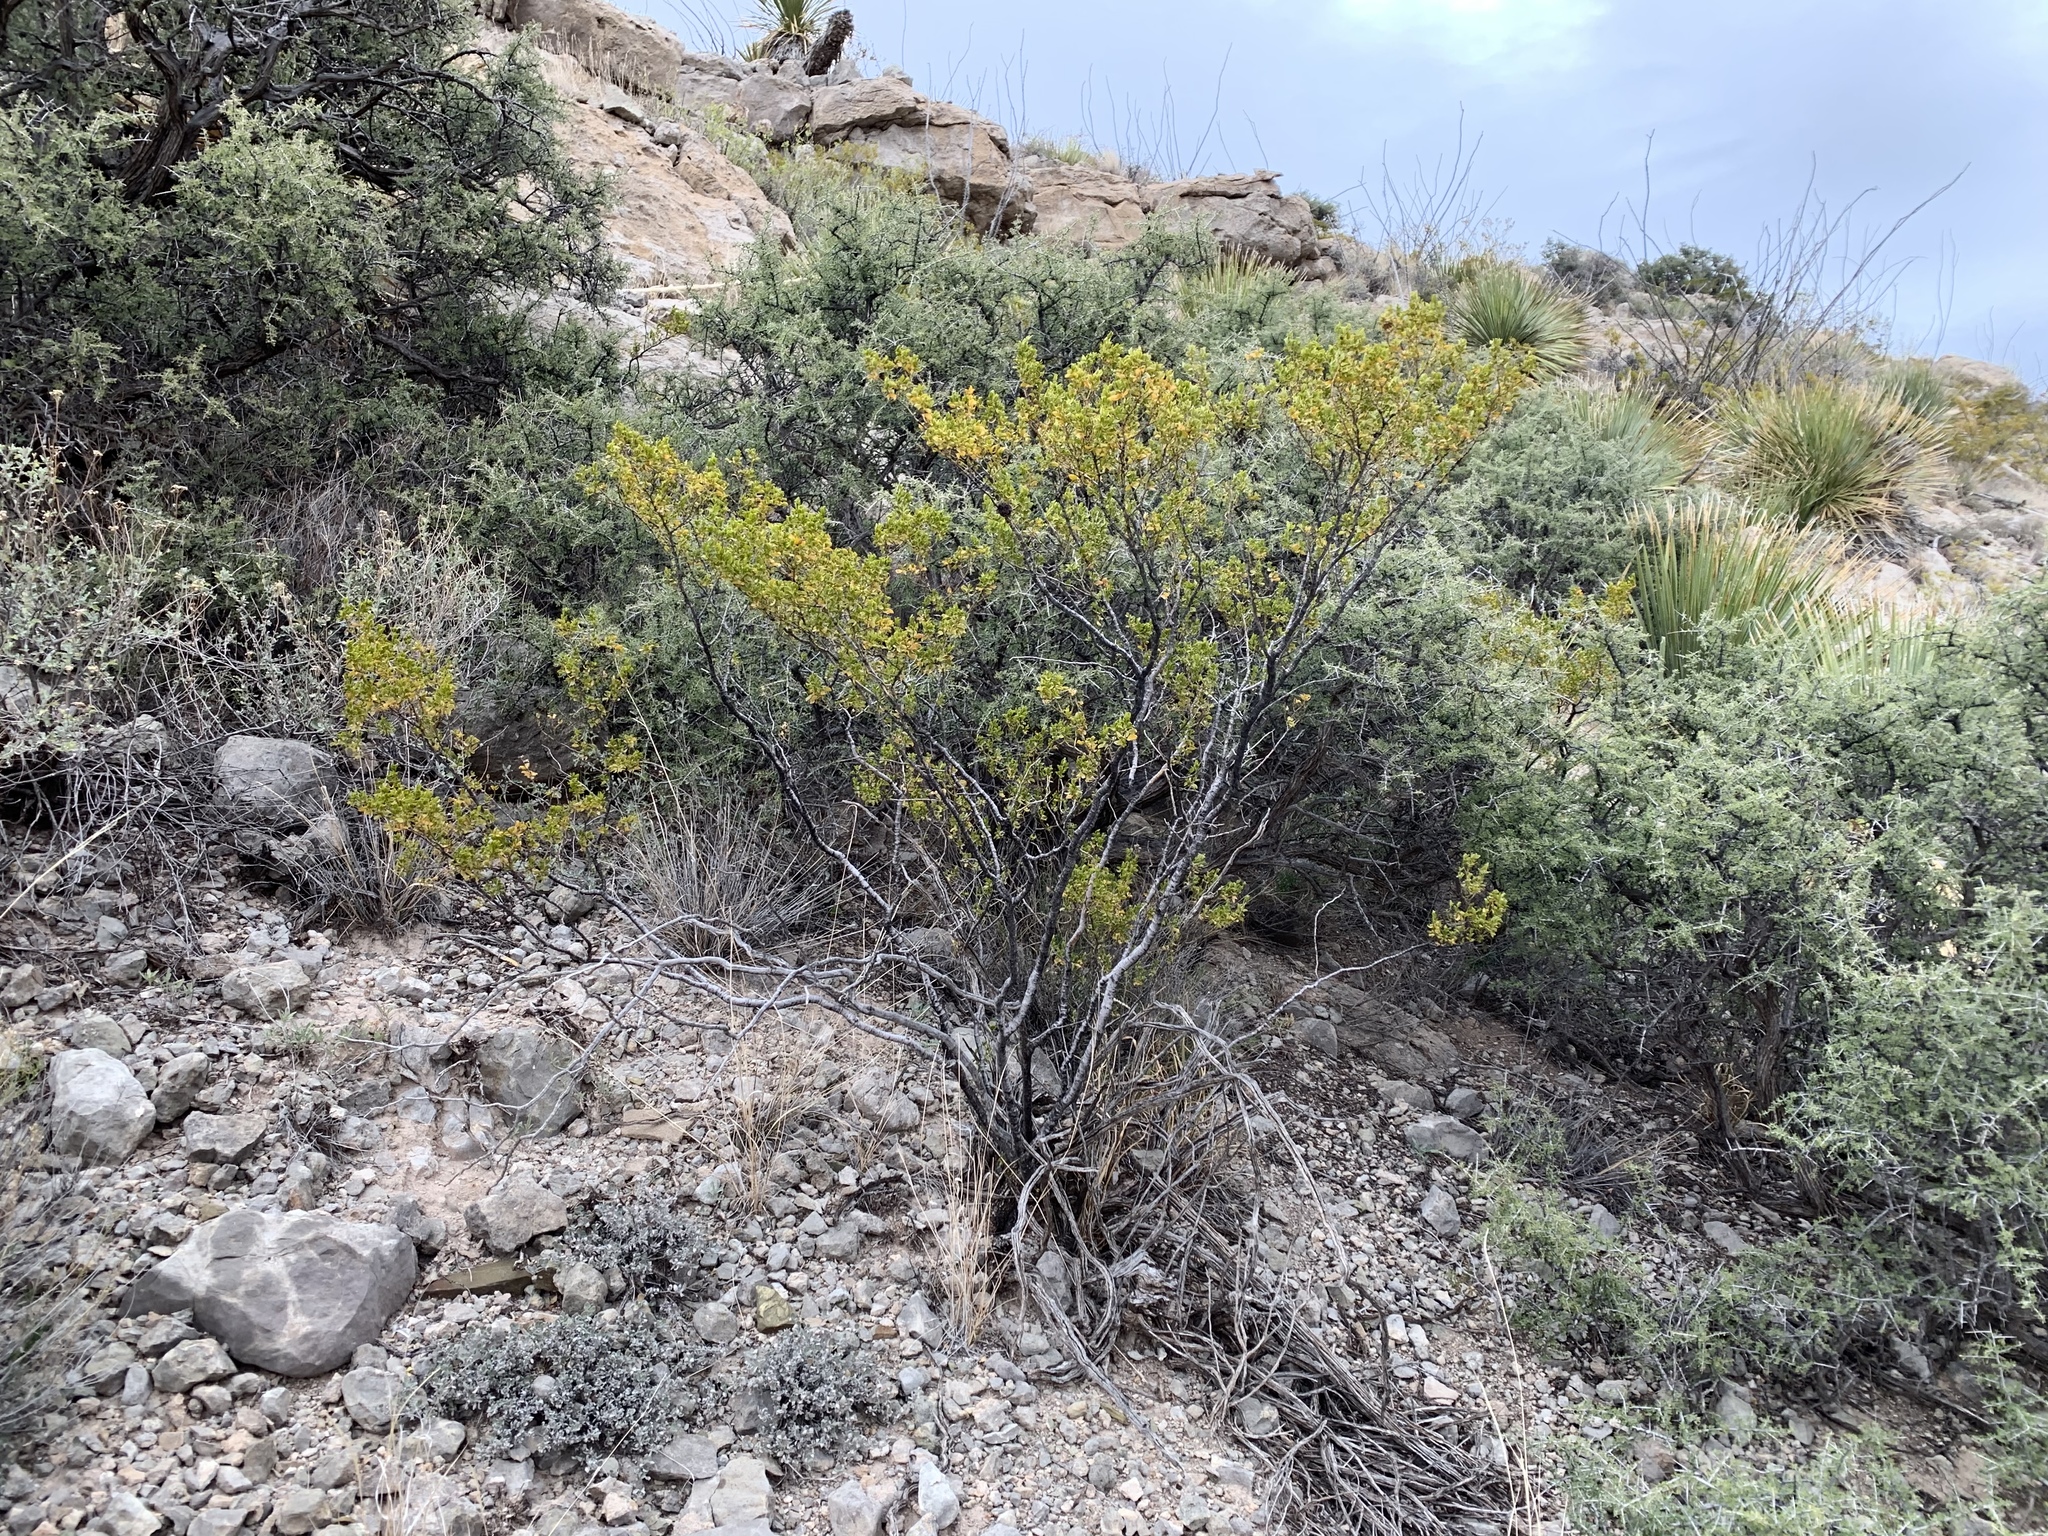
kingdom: Plantae
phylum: Tracheophyta
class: Magnoliopsida
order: Zygophyllales
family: Zygophyllaceae
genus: Larrea
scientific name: Larrea tridentata
